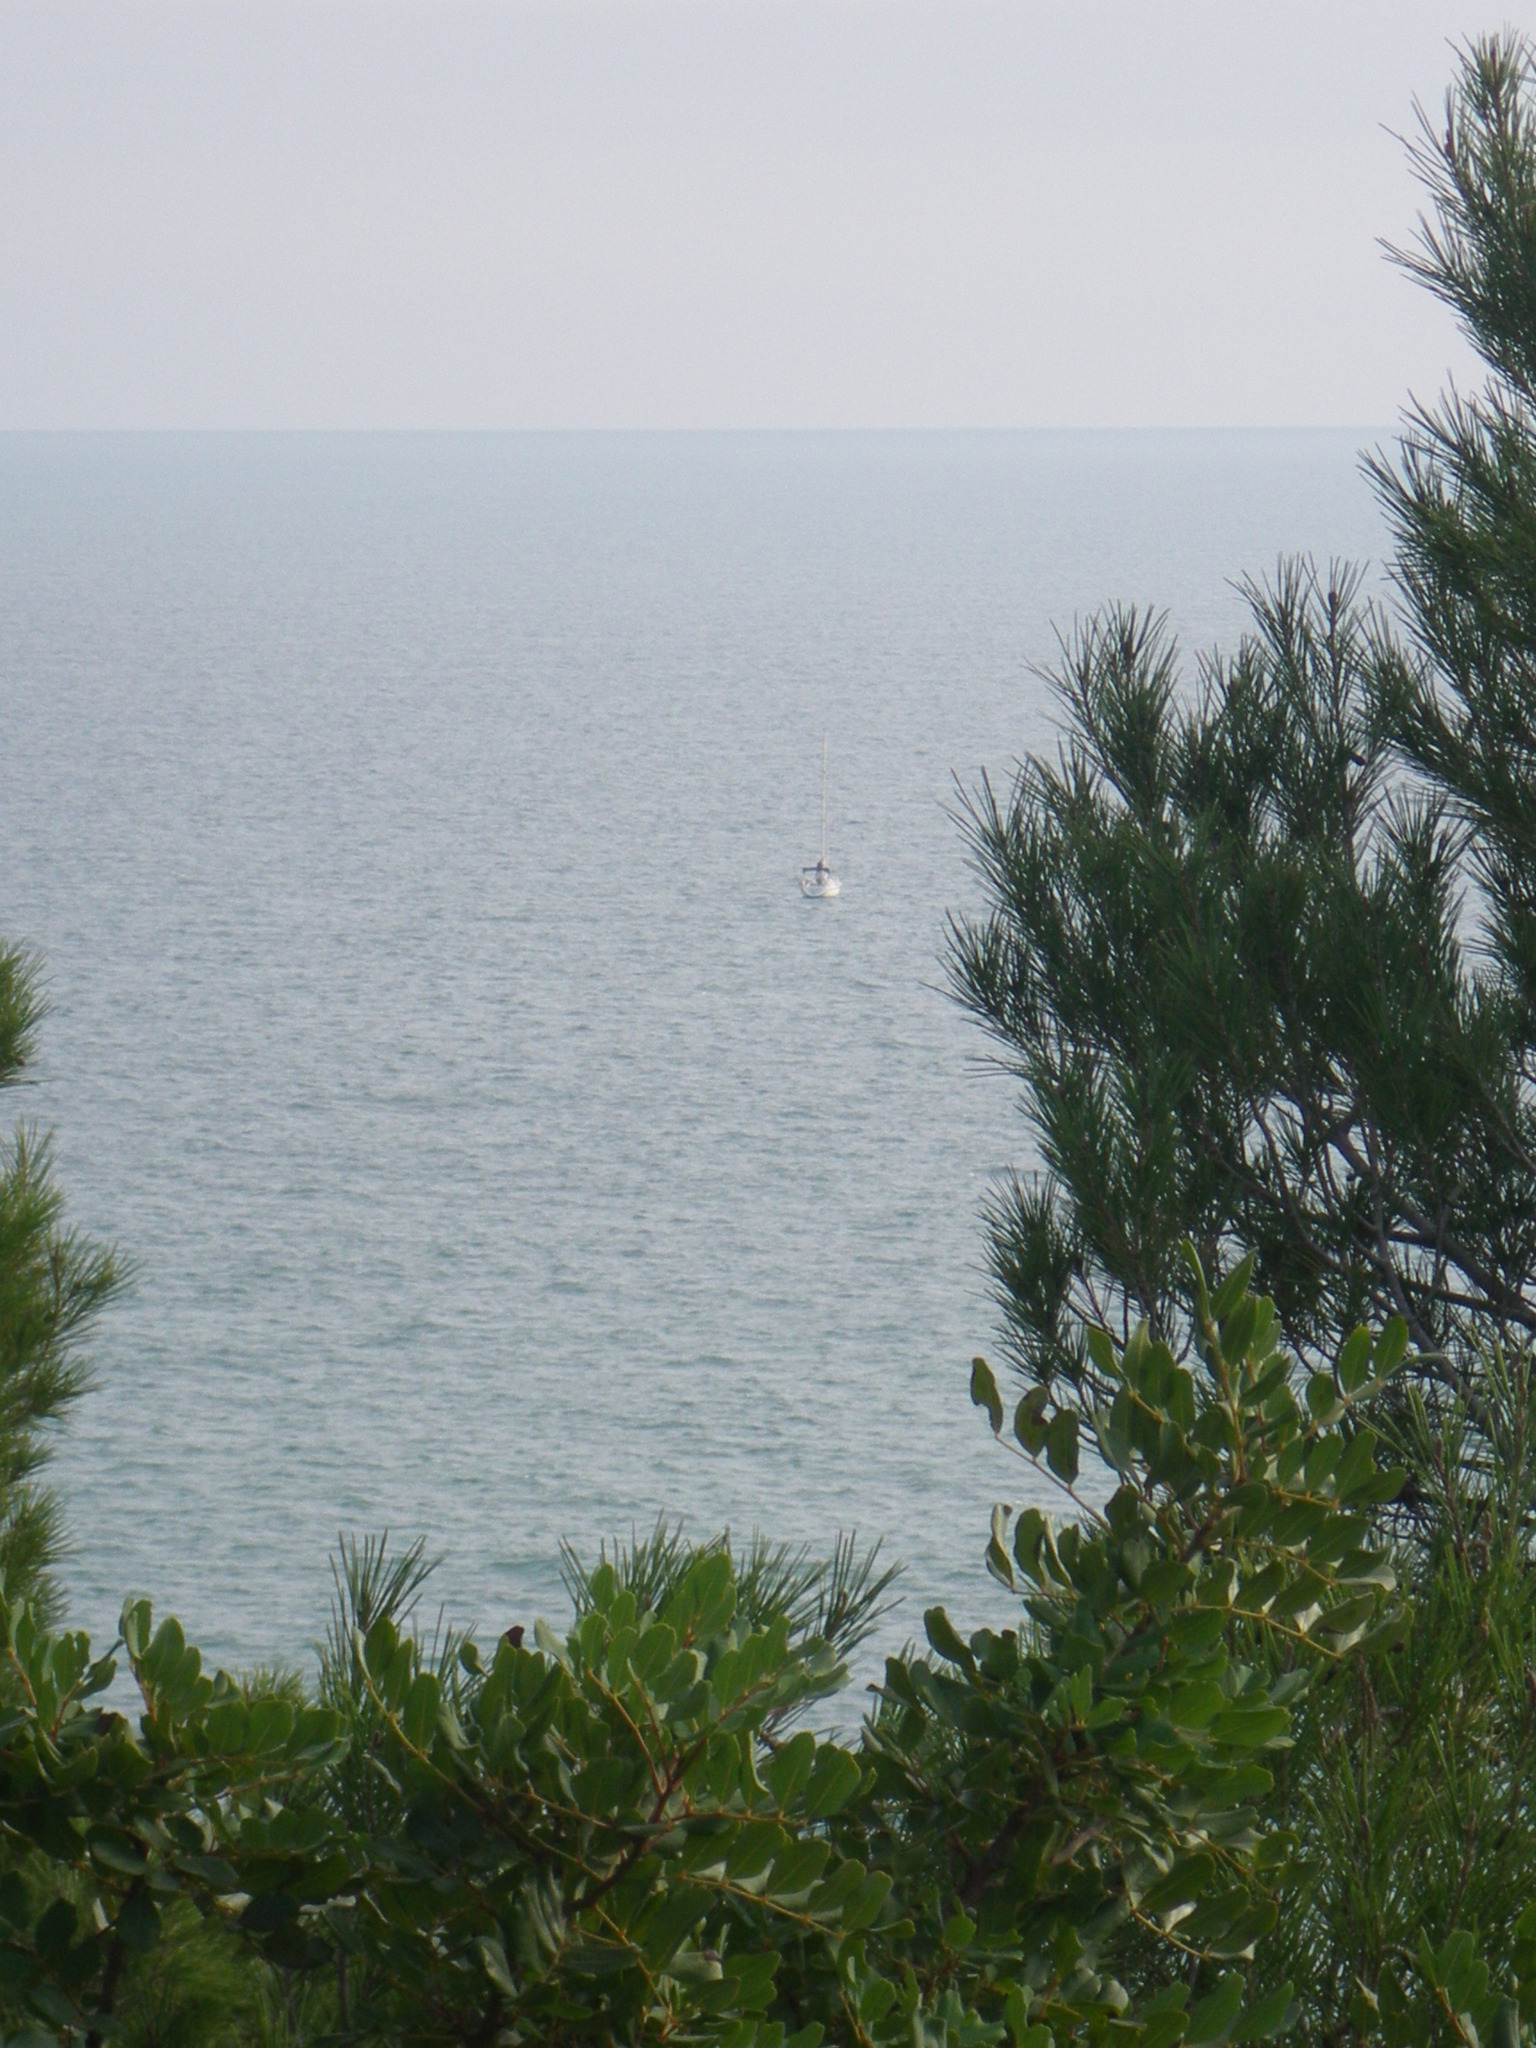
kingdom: Plantae
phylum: Tracheophyta
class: Magnoliopsida
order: Sapindales
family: Anacardiaceae
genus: Pistacia
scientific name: Pistacia lentiscus
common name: Lentisk
